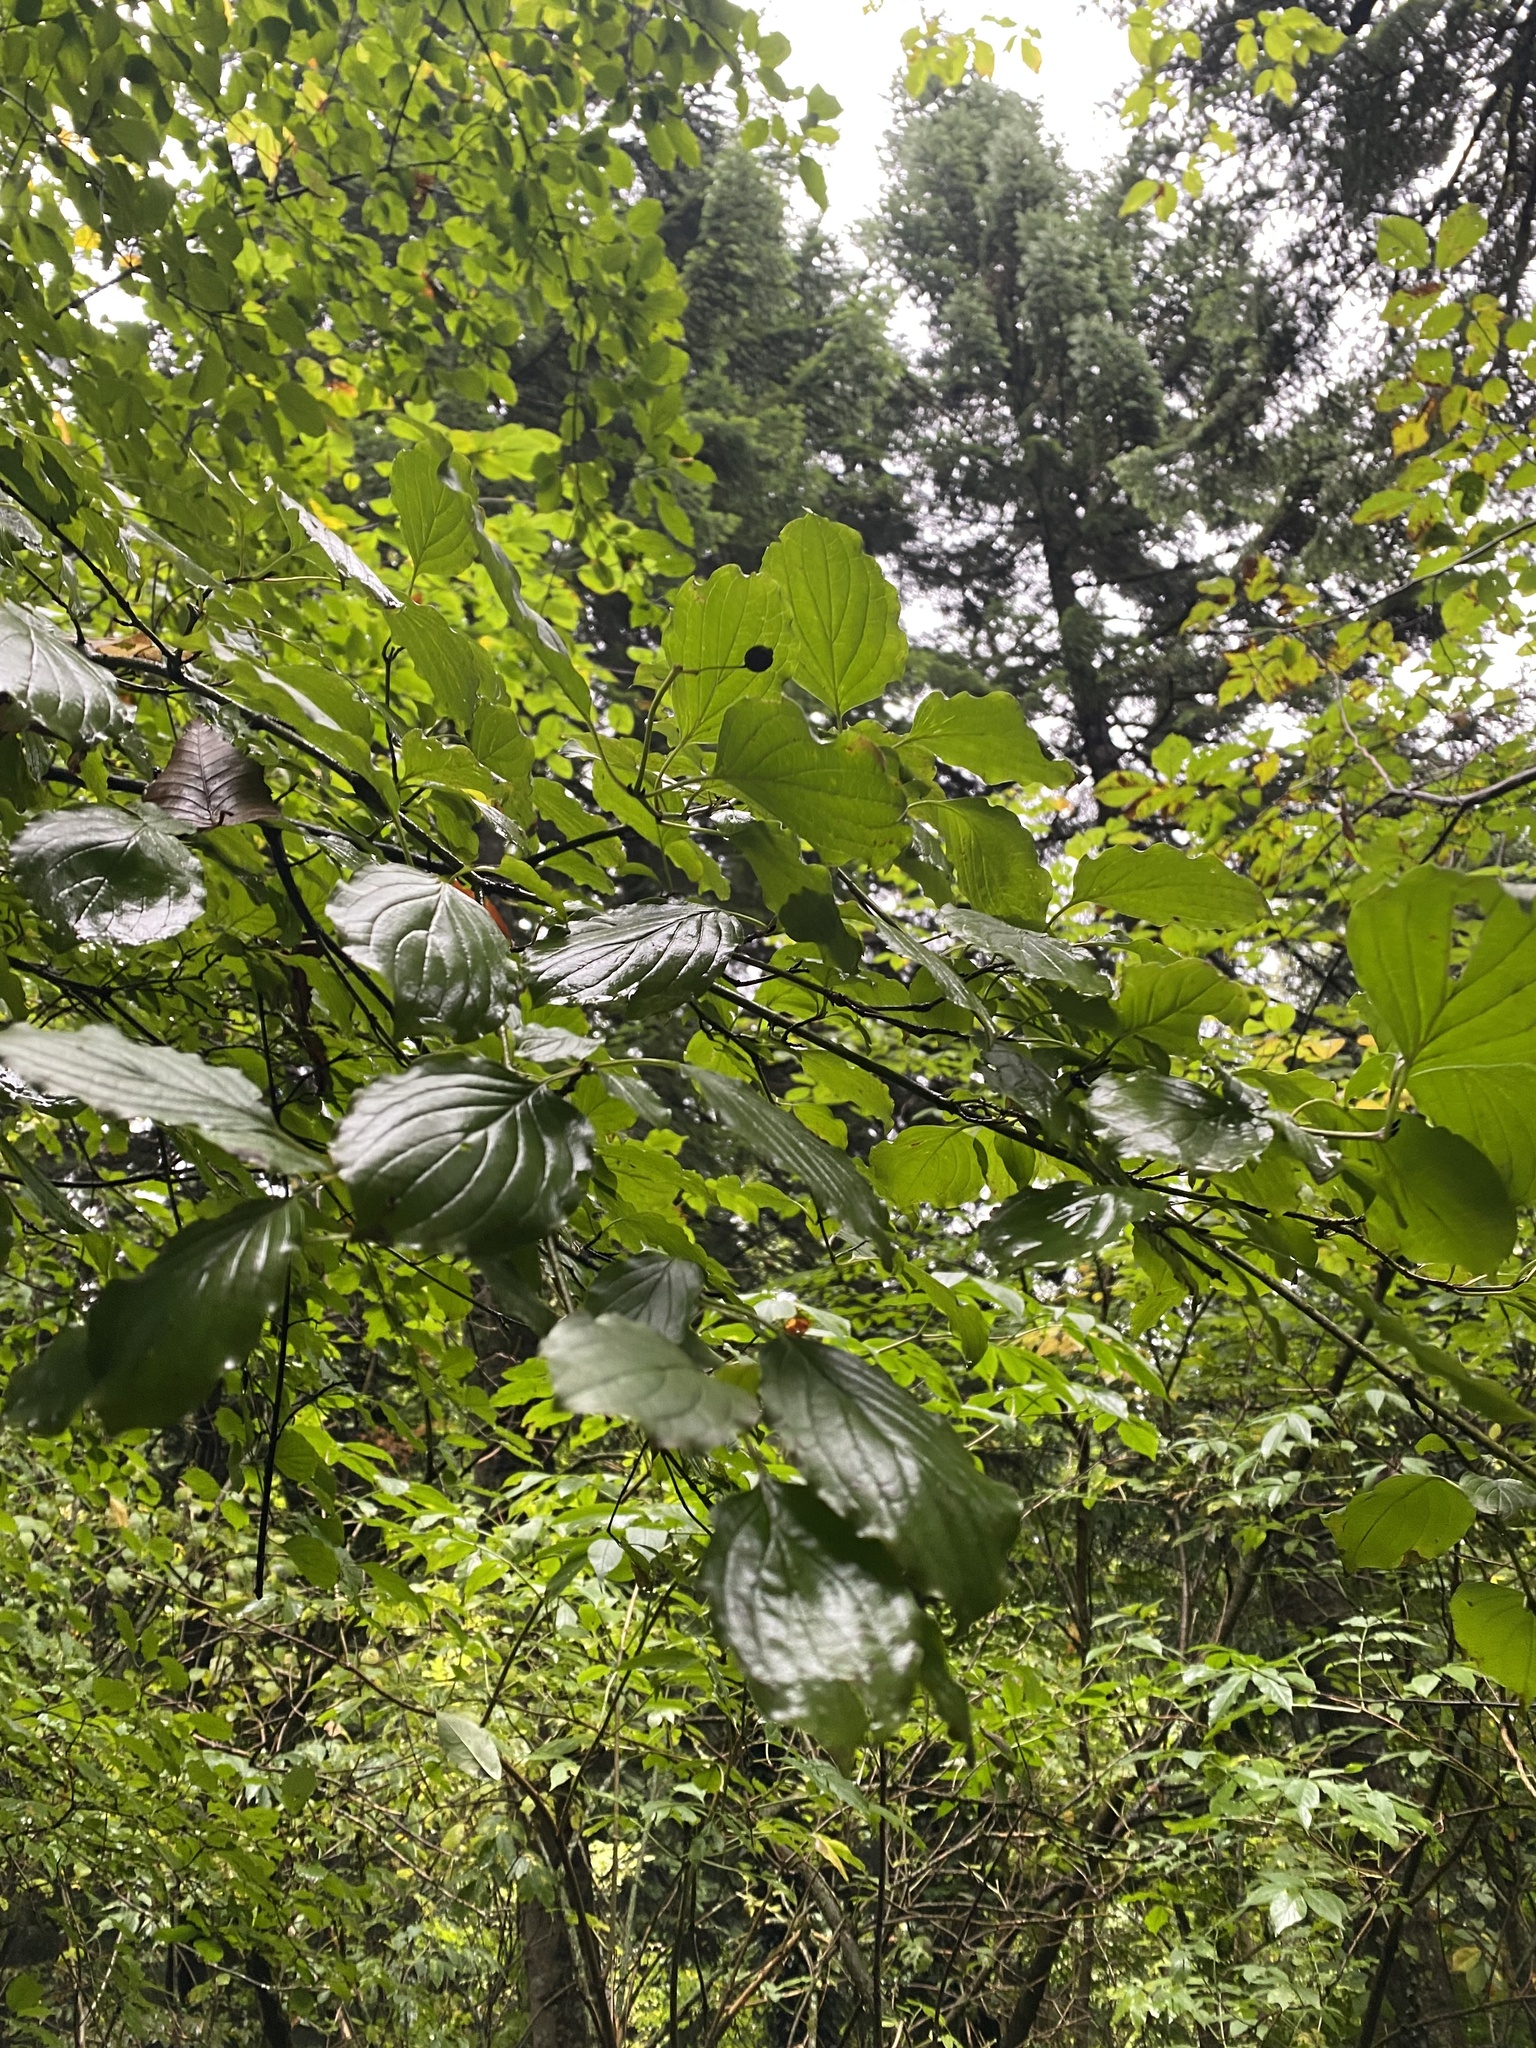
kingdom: Plantae
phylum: Tracheophyta
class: Magnoliopsida
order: Cornales
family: Cornaceae
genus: Cornus
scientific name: Cornus sanguinea
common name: Dogwood
